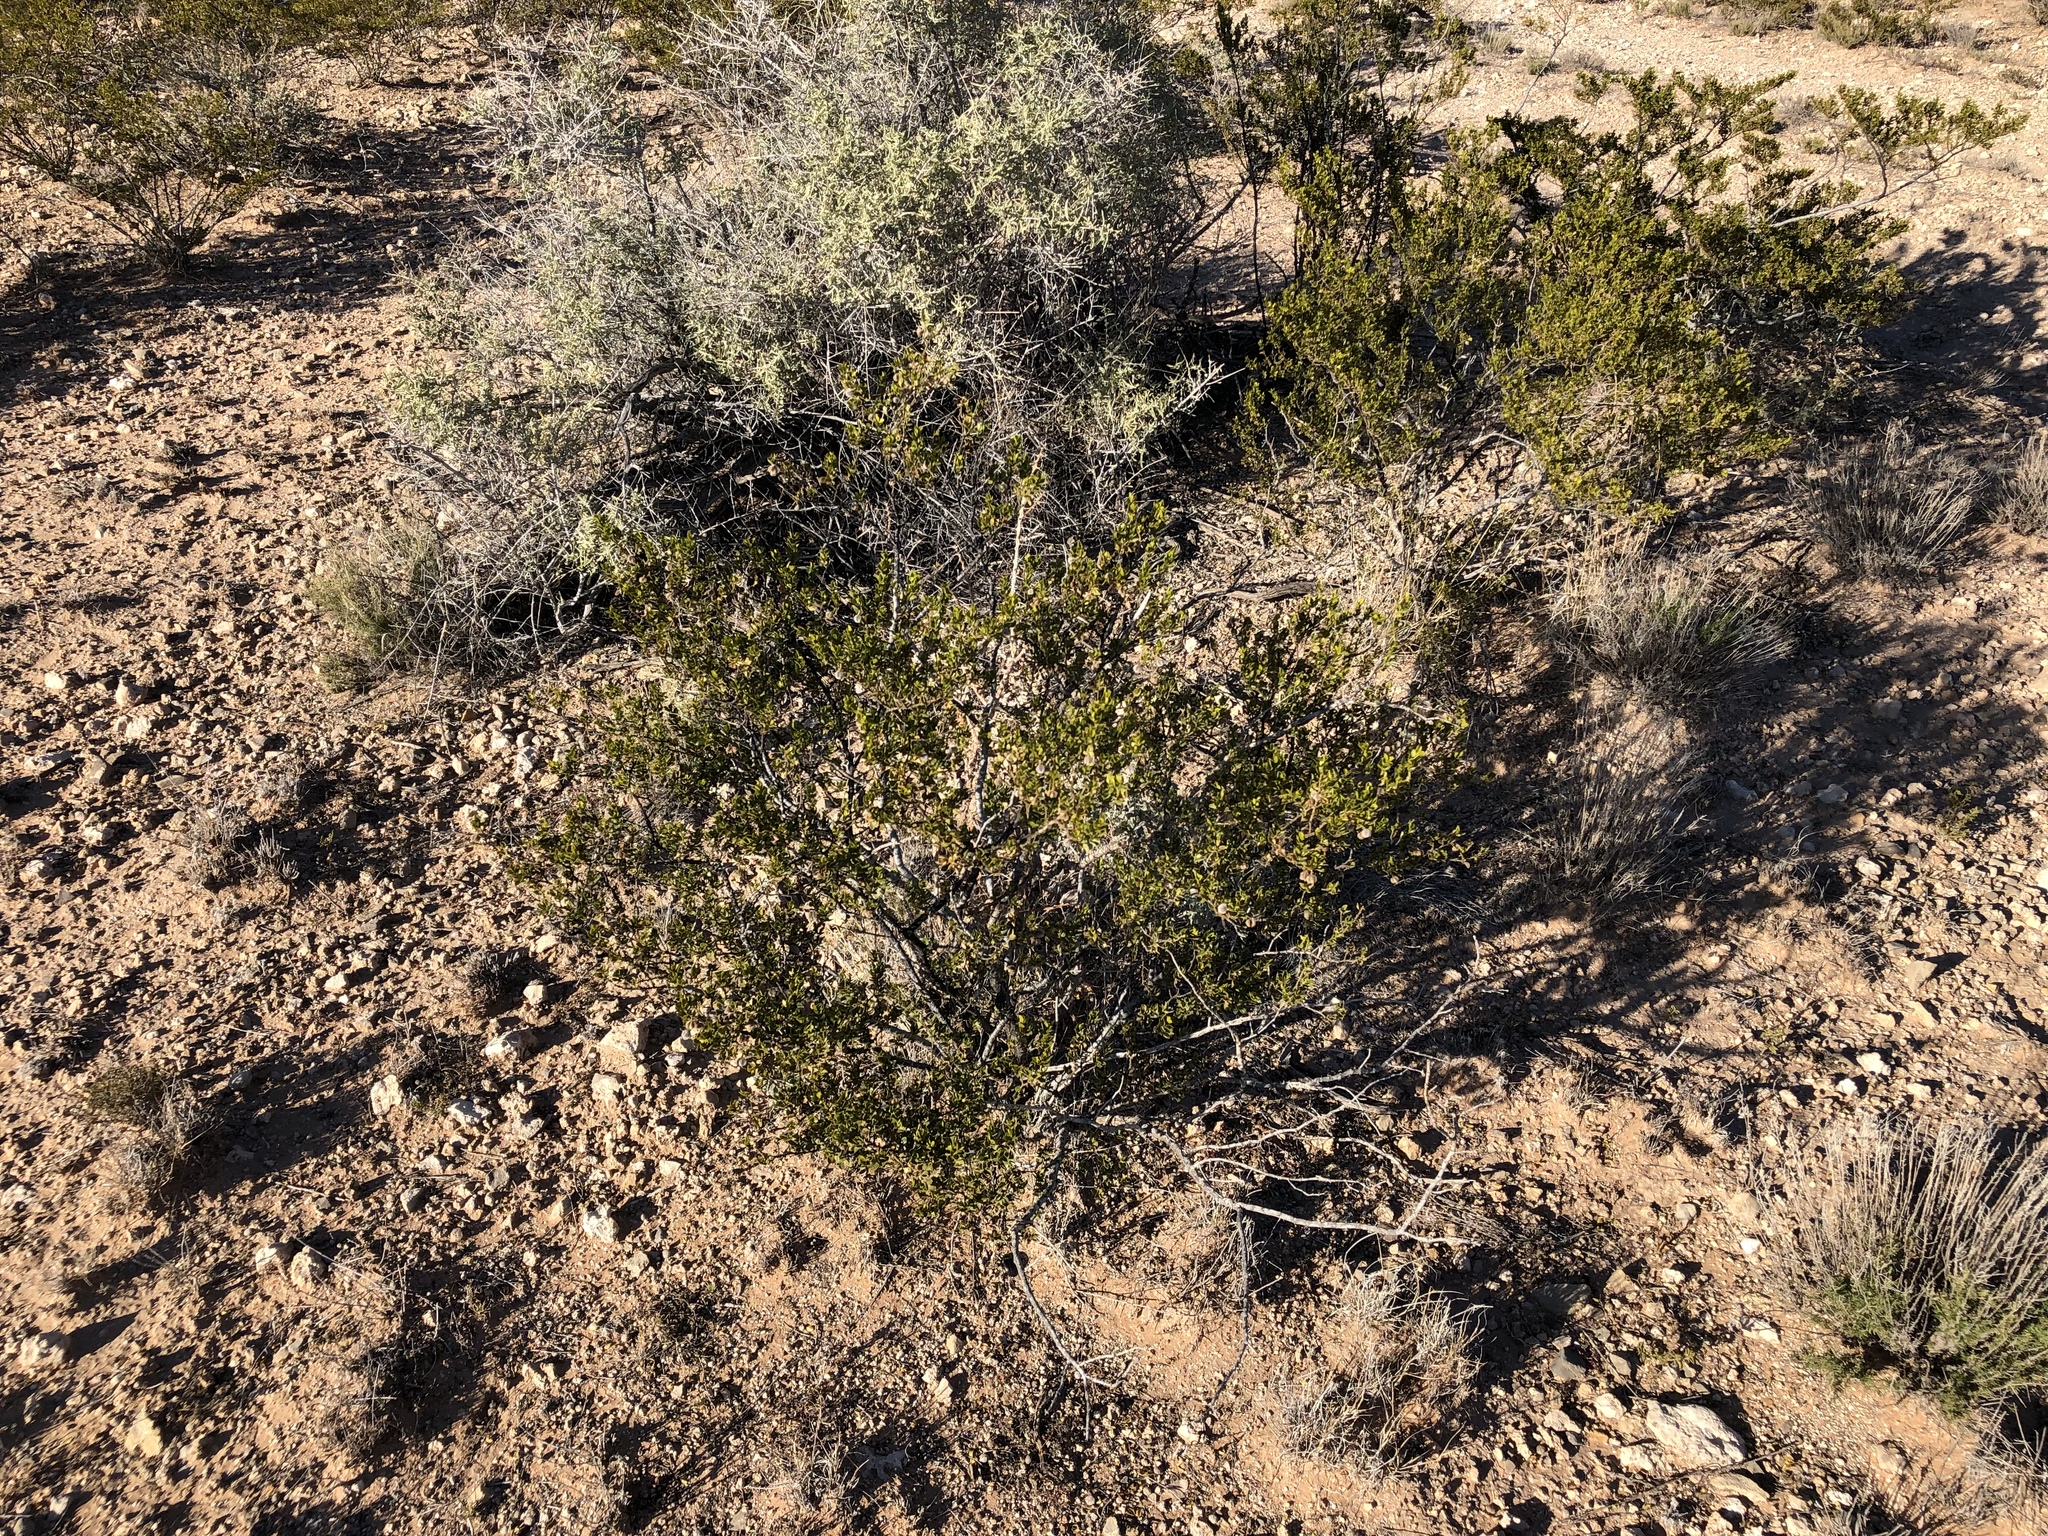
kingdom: Plantae
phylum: Tracheophyta
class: Magnoliopsida
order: Zygophyllales
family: Zygophyllaceae
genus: Larrea
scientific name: Larrea tridentata
